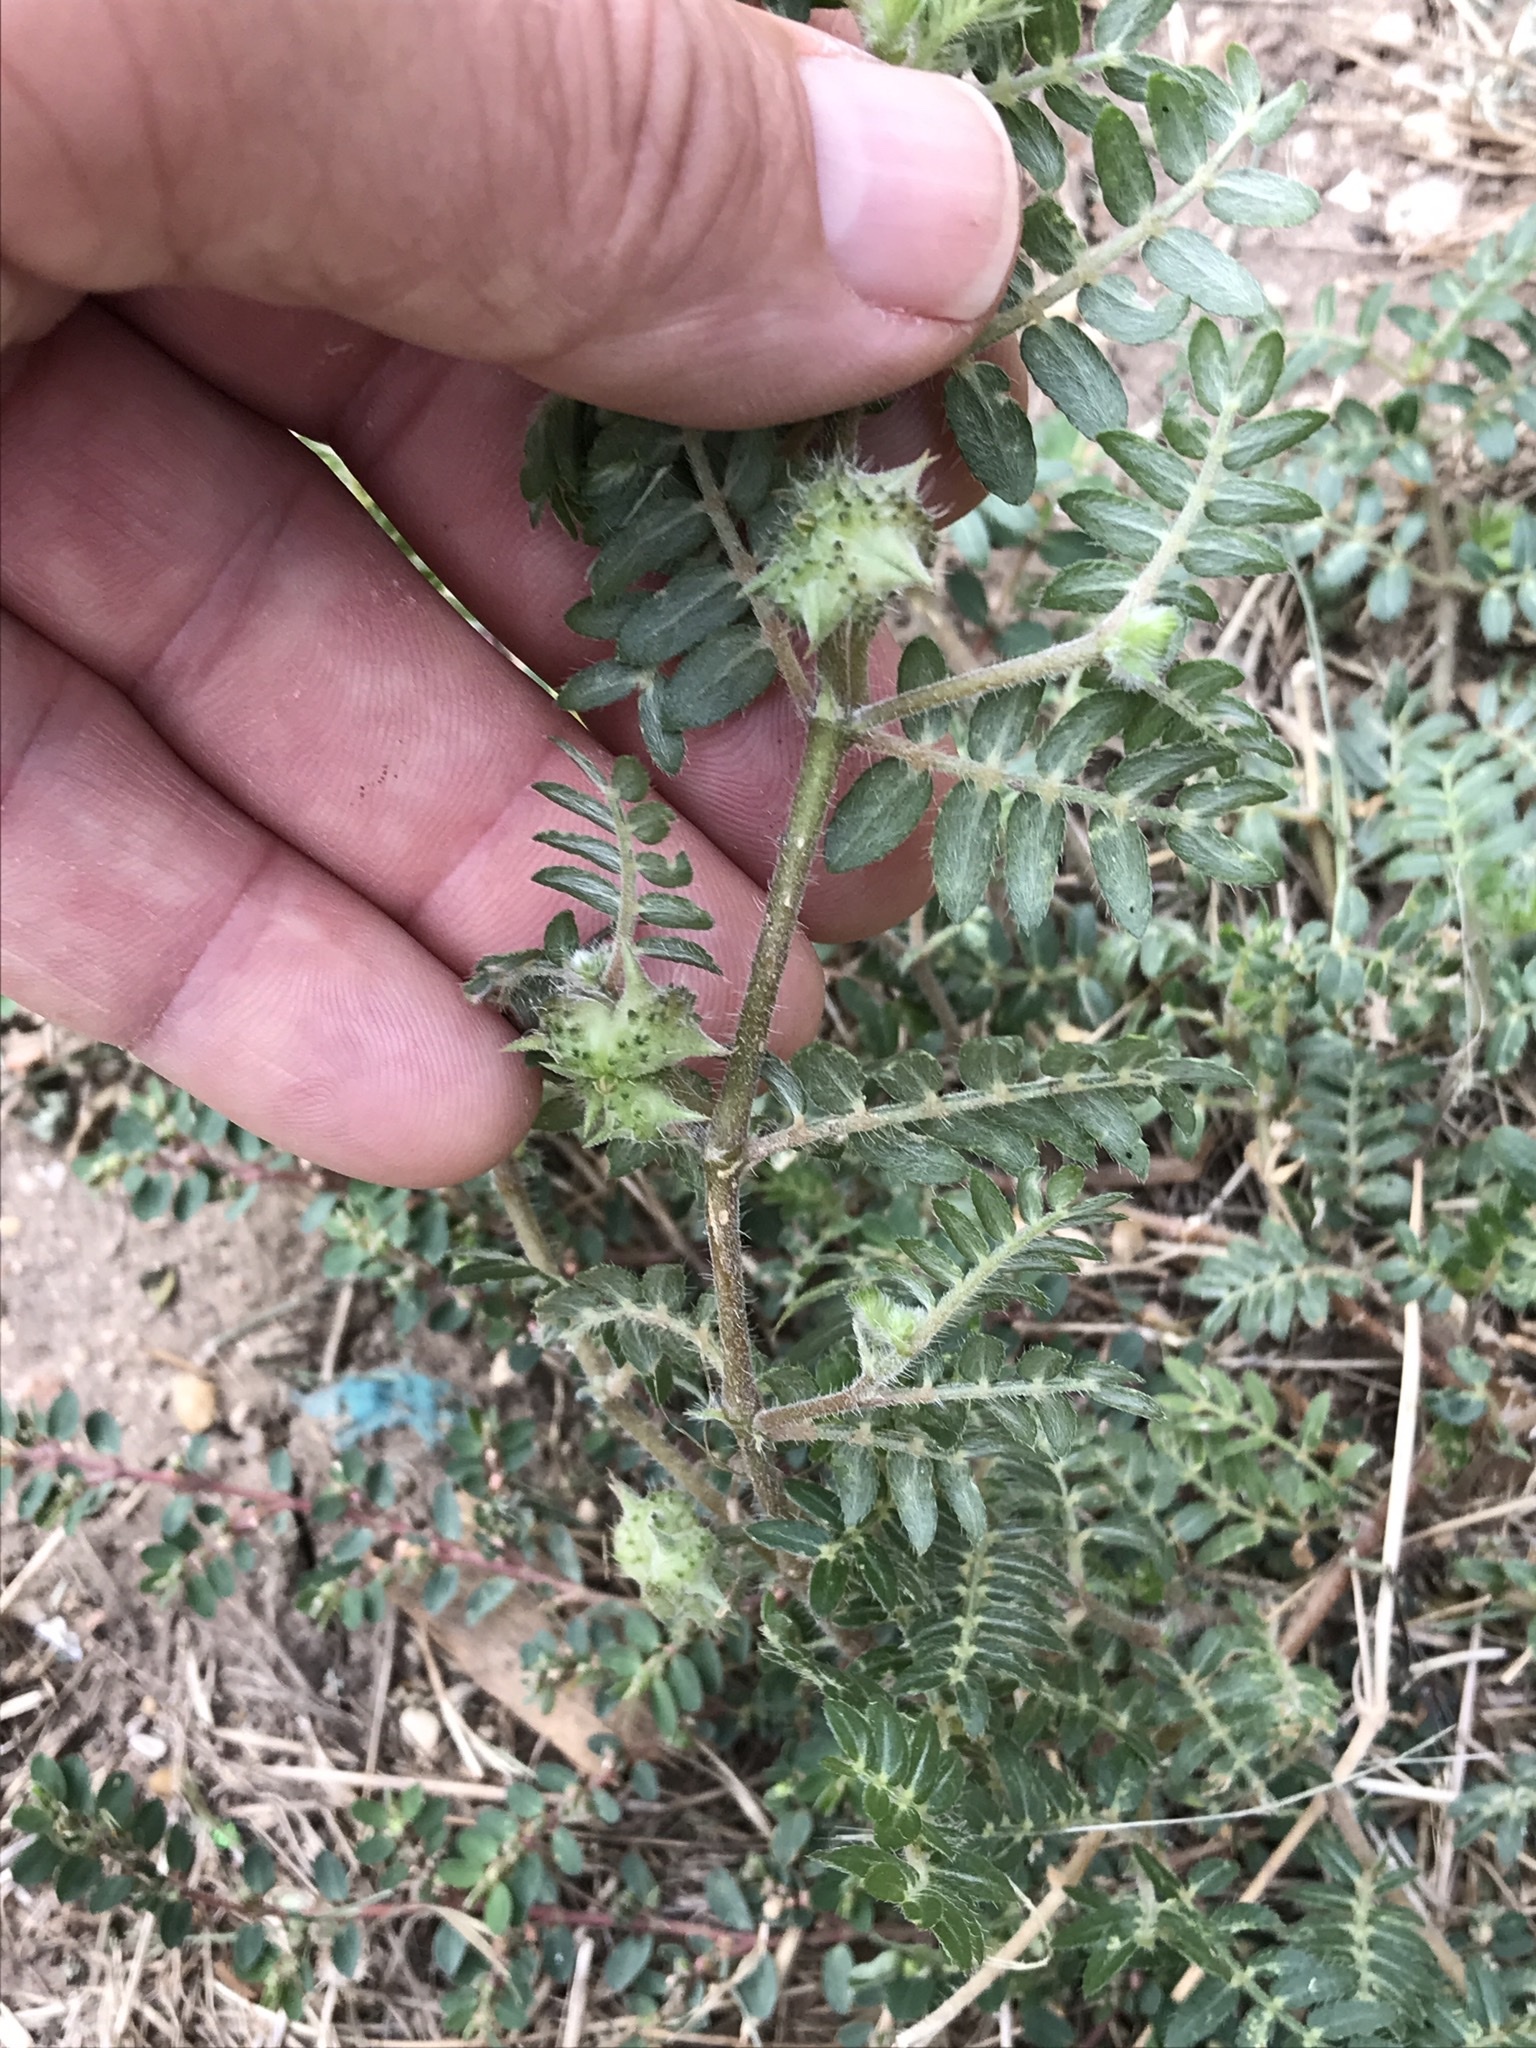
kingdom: Plantae
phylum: Tracheophyta
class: Magnoliopsida
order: Zygophyllales
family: Zygophyllaceae
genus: Tribulus
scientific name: Tribulus terrestris
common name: Puncturevine
